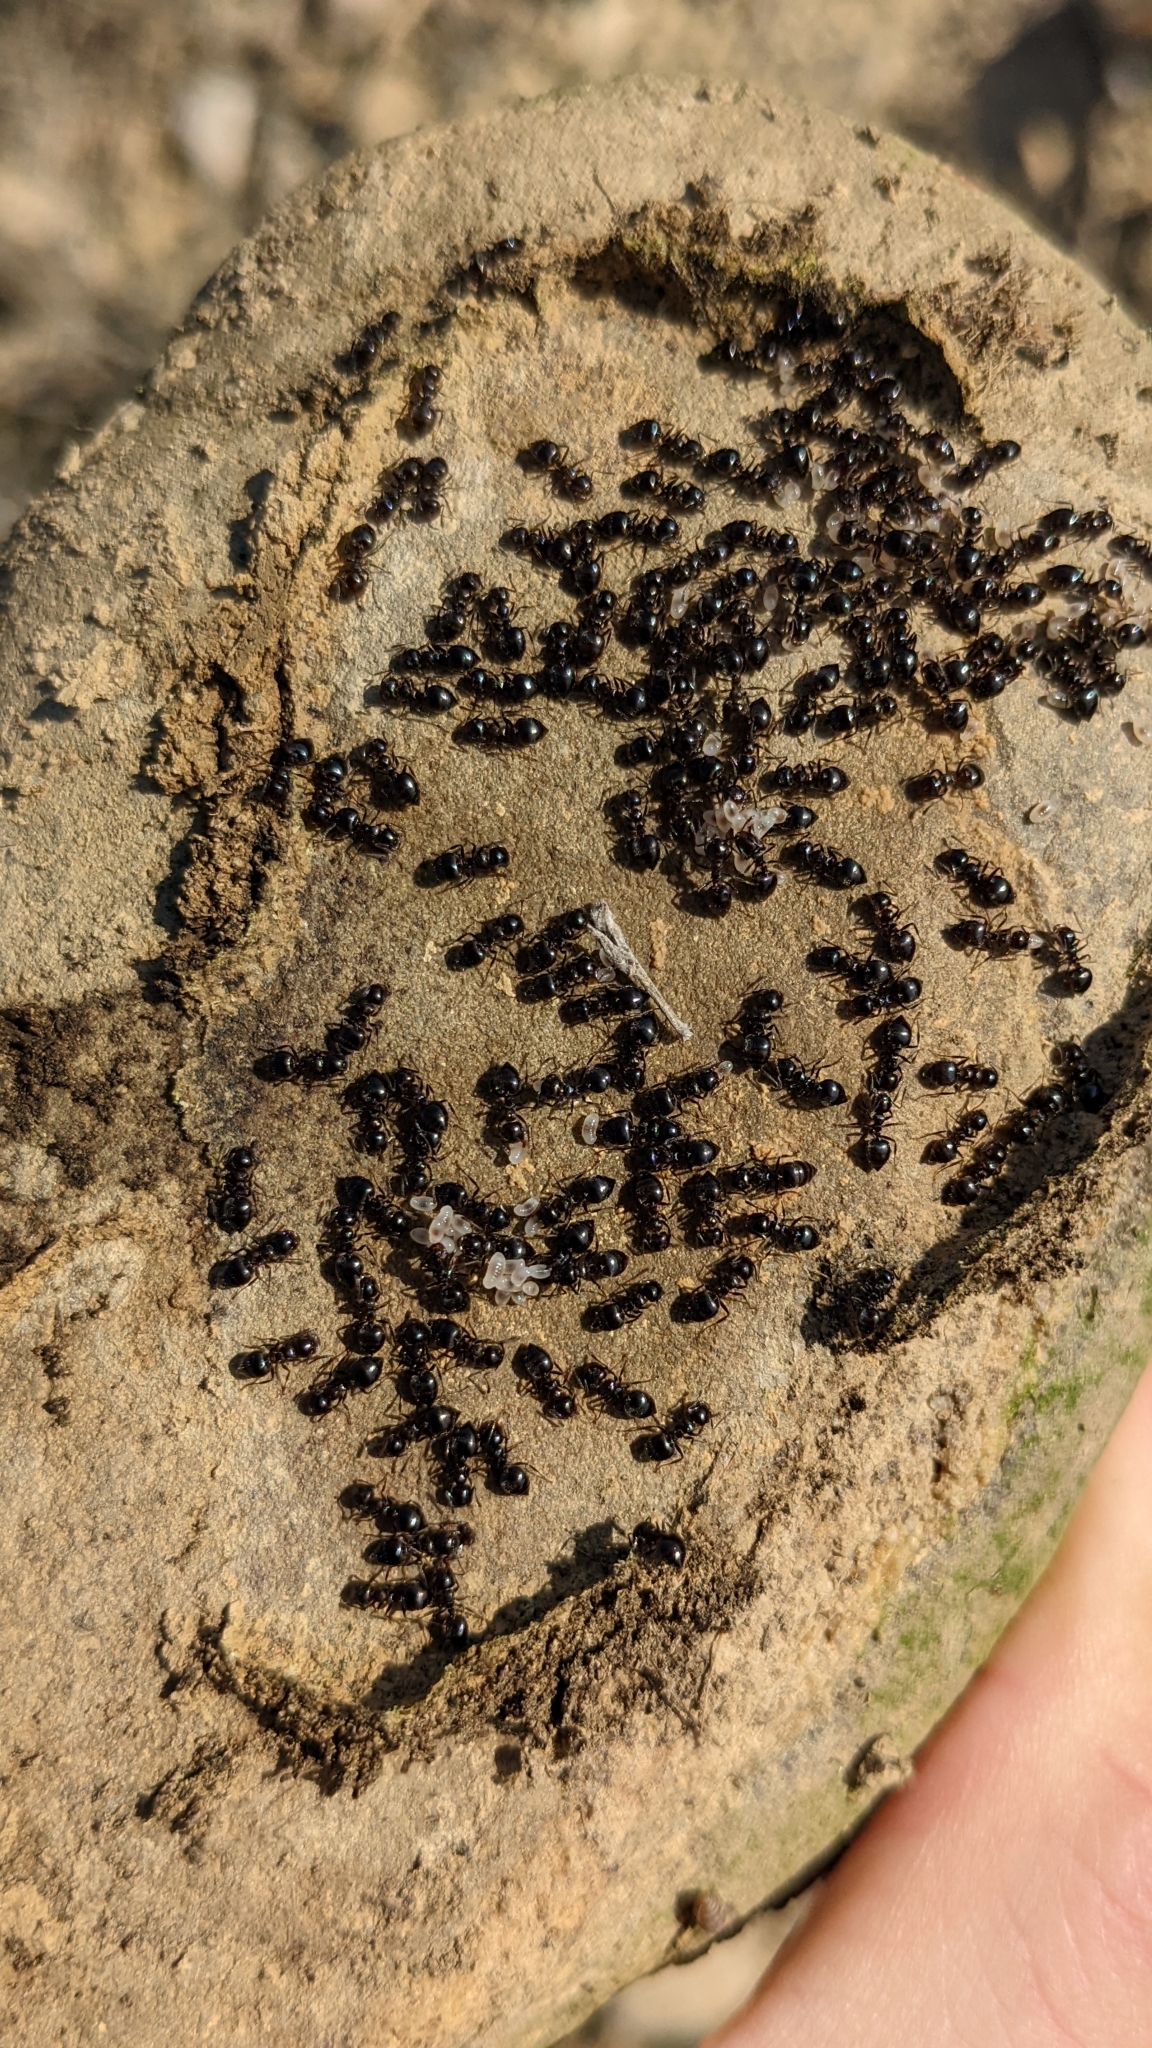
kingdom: Animalia
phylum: Arthropoda
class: Insecta
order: Hymenoptera
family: Formicidae
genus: Crematogaster
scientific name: Crematogaster auberti
